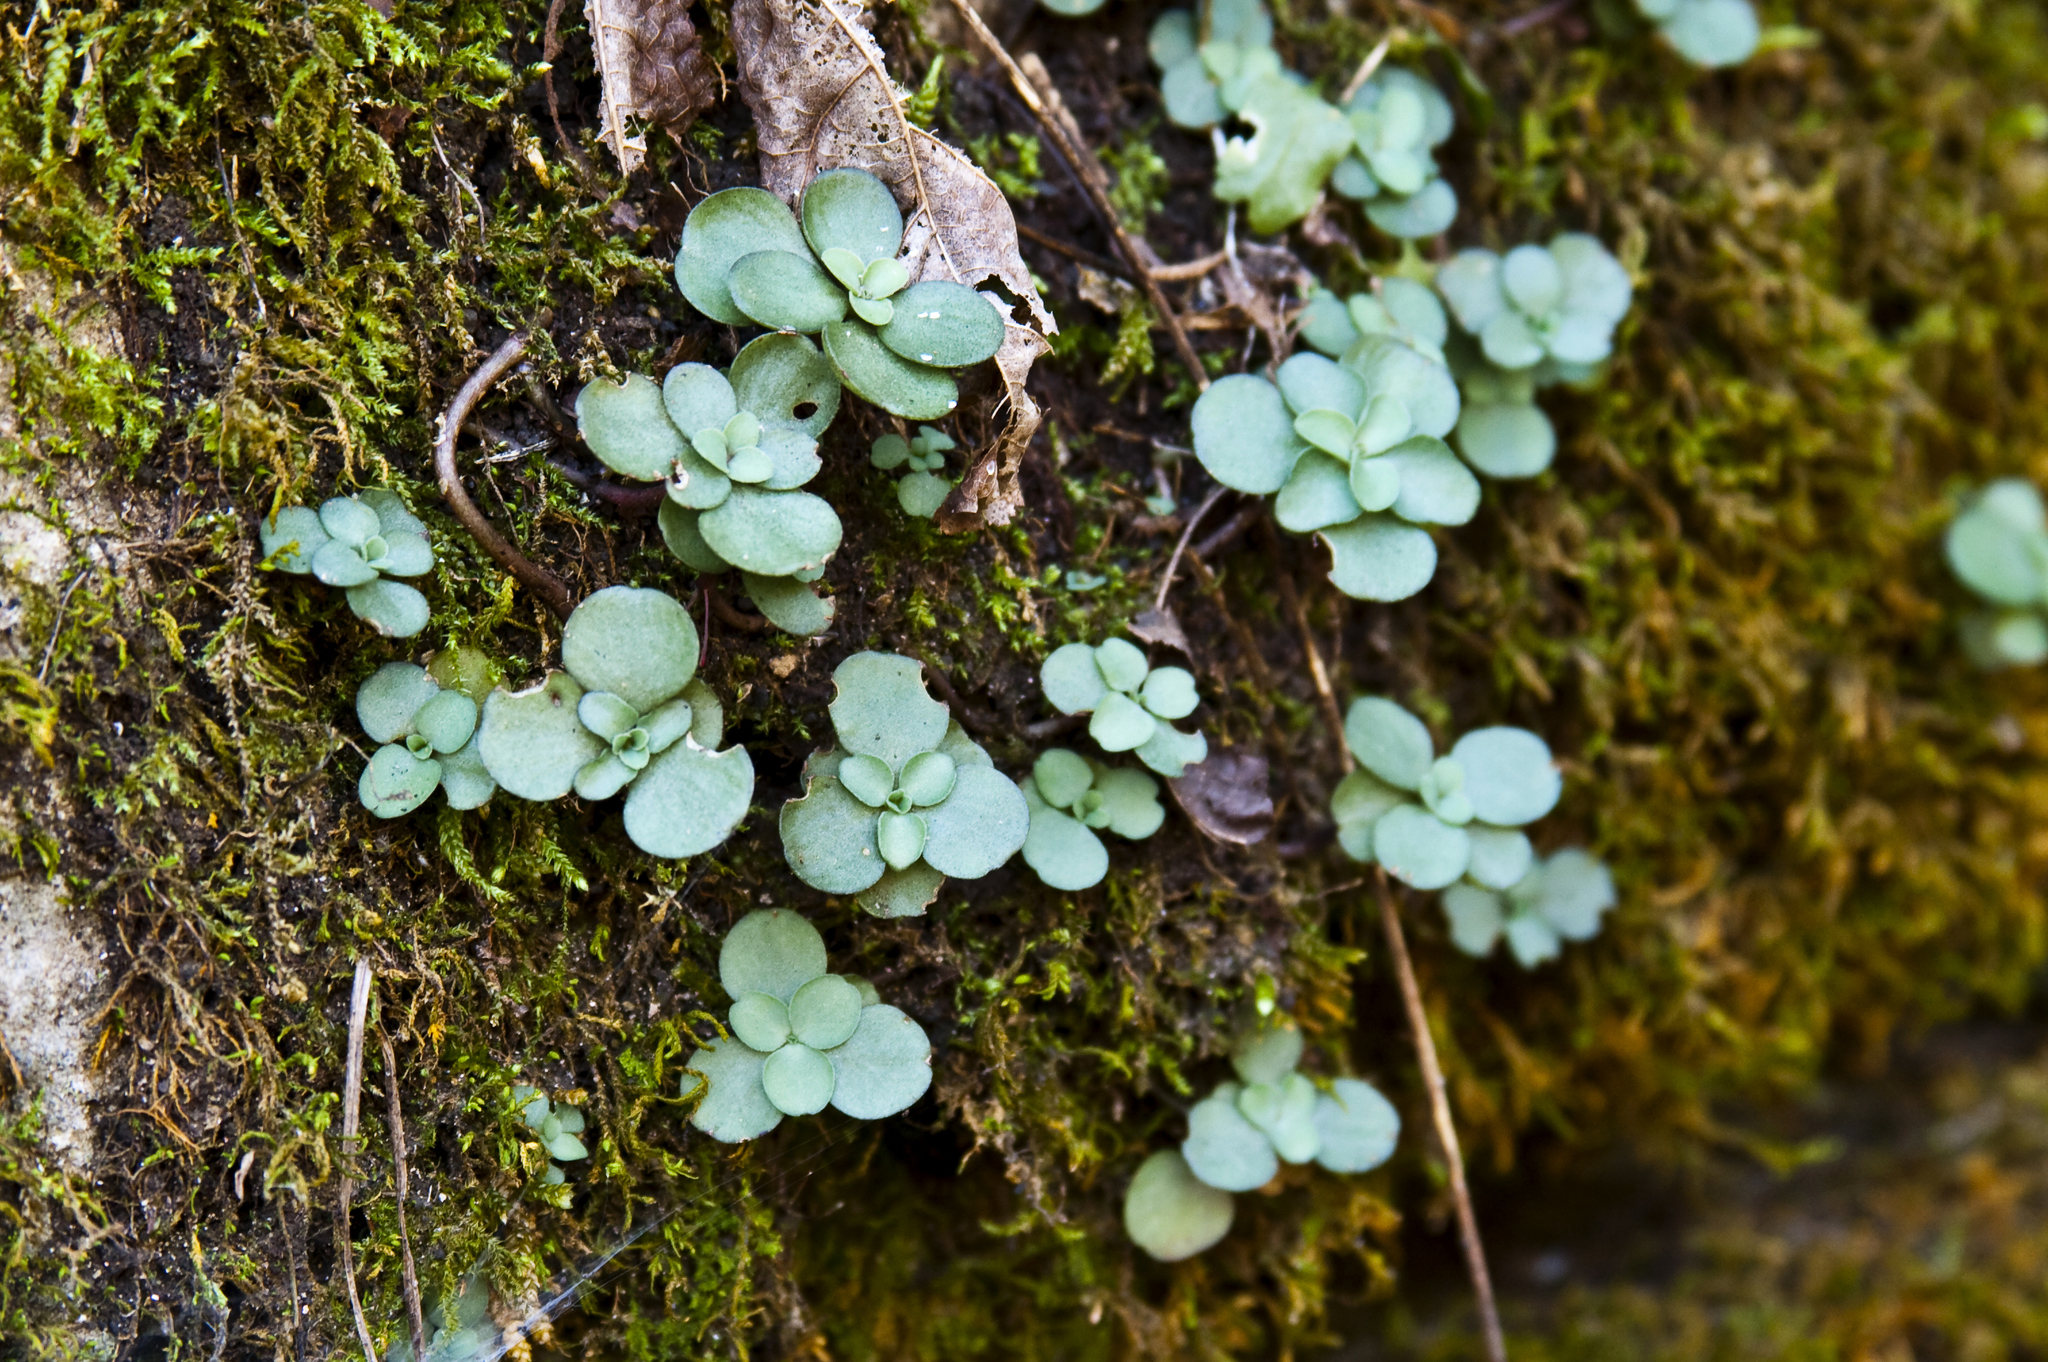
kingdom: Plantae
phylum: Tracheophyta
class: Magnoliopsida
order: Saxifragales
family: Crassulaceae
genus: Sedum
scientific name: Sedum ternatum
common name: Wild stonecrop
